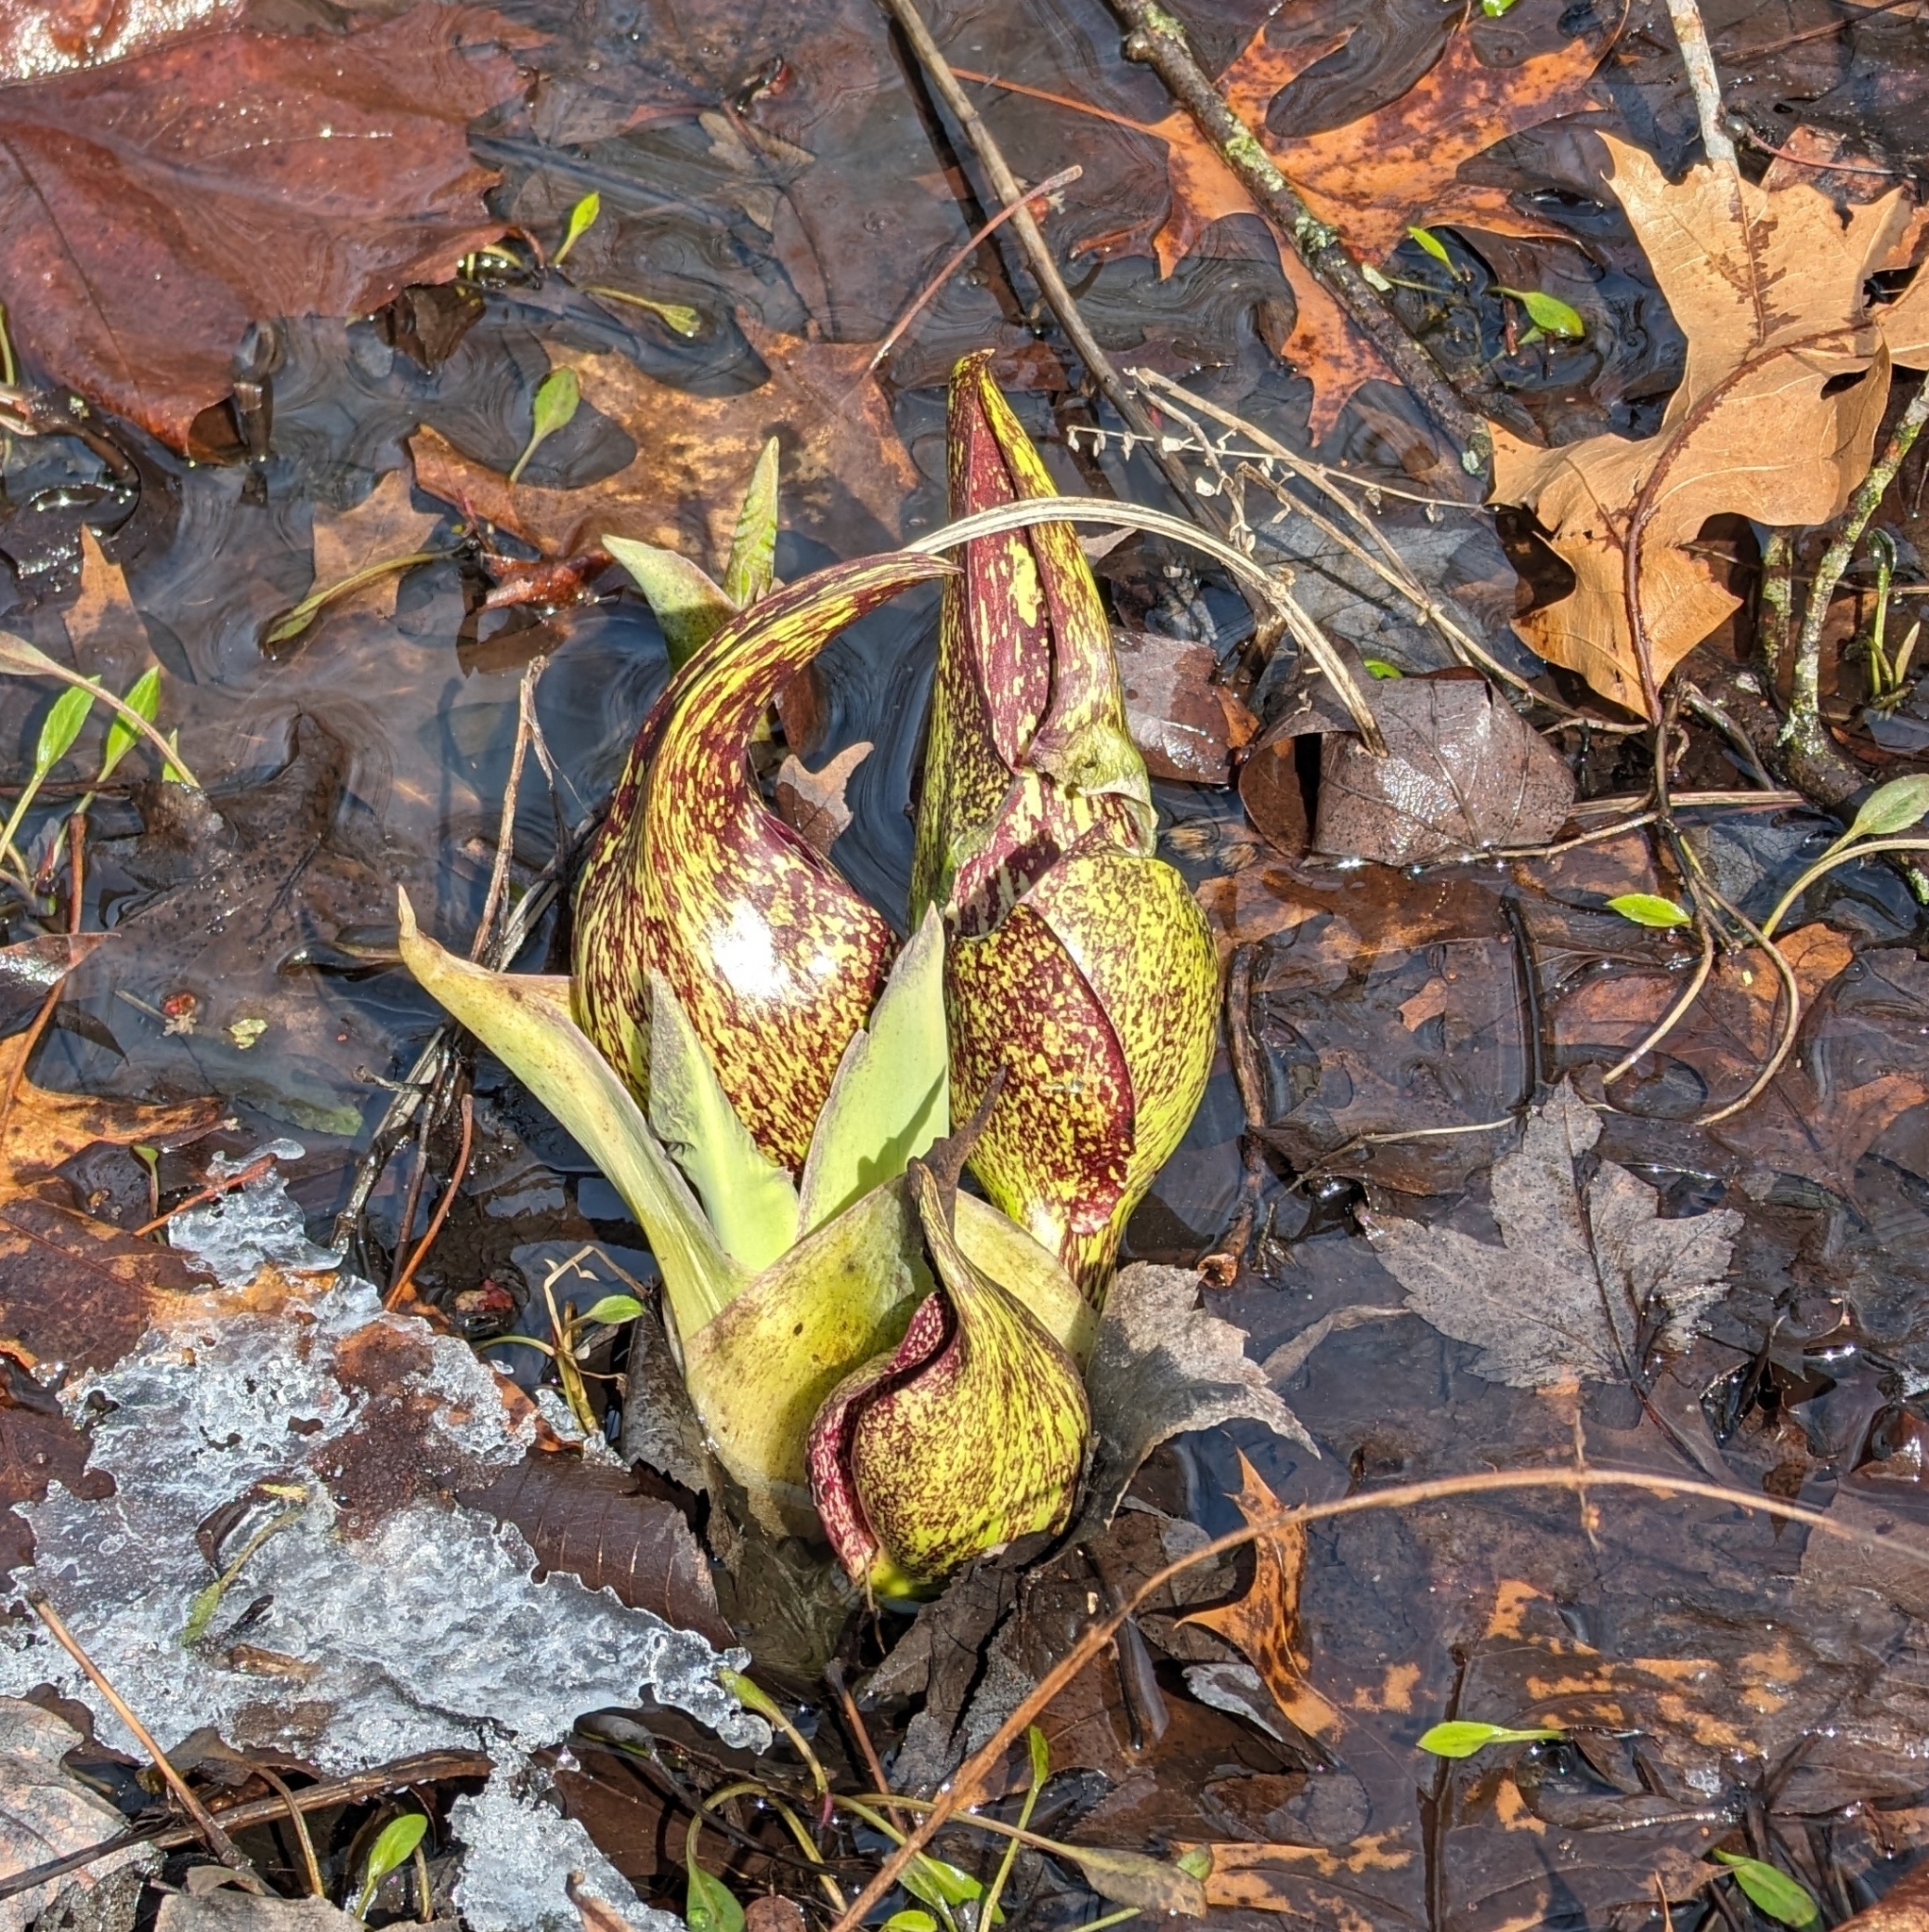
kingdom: Plantae
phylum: Tracheophyta
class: Liliopsida
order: Alismatales
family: Araceae
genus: Symplocarpus
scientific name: Symplocarpus foetidus
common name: Eastern skunk cabbage
